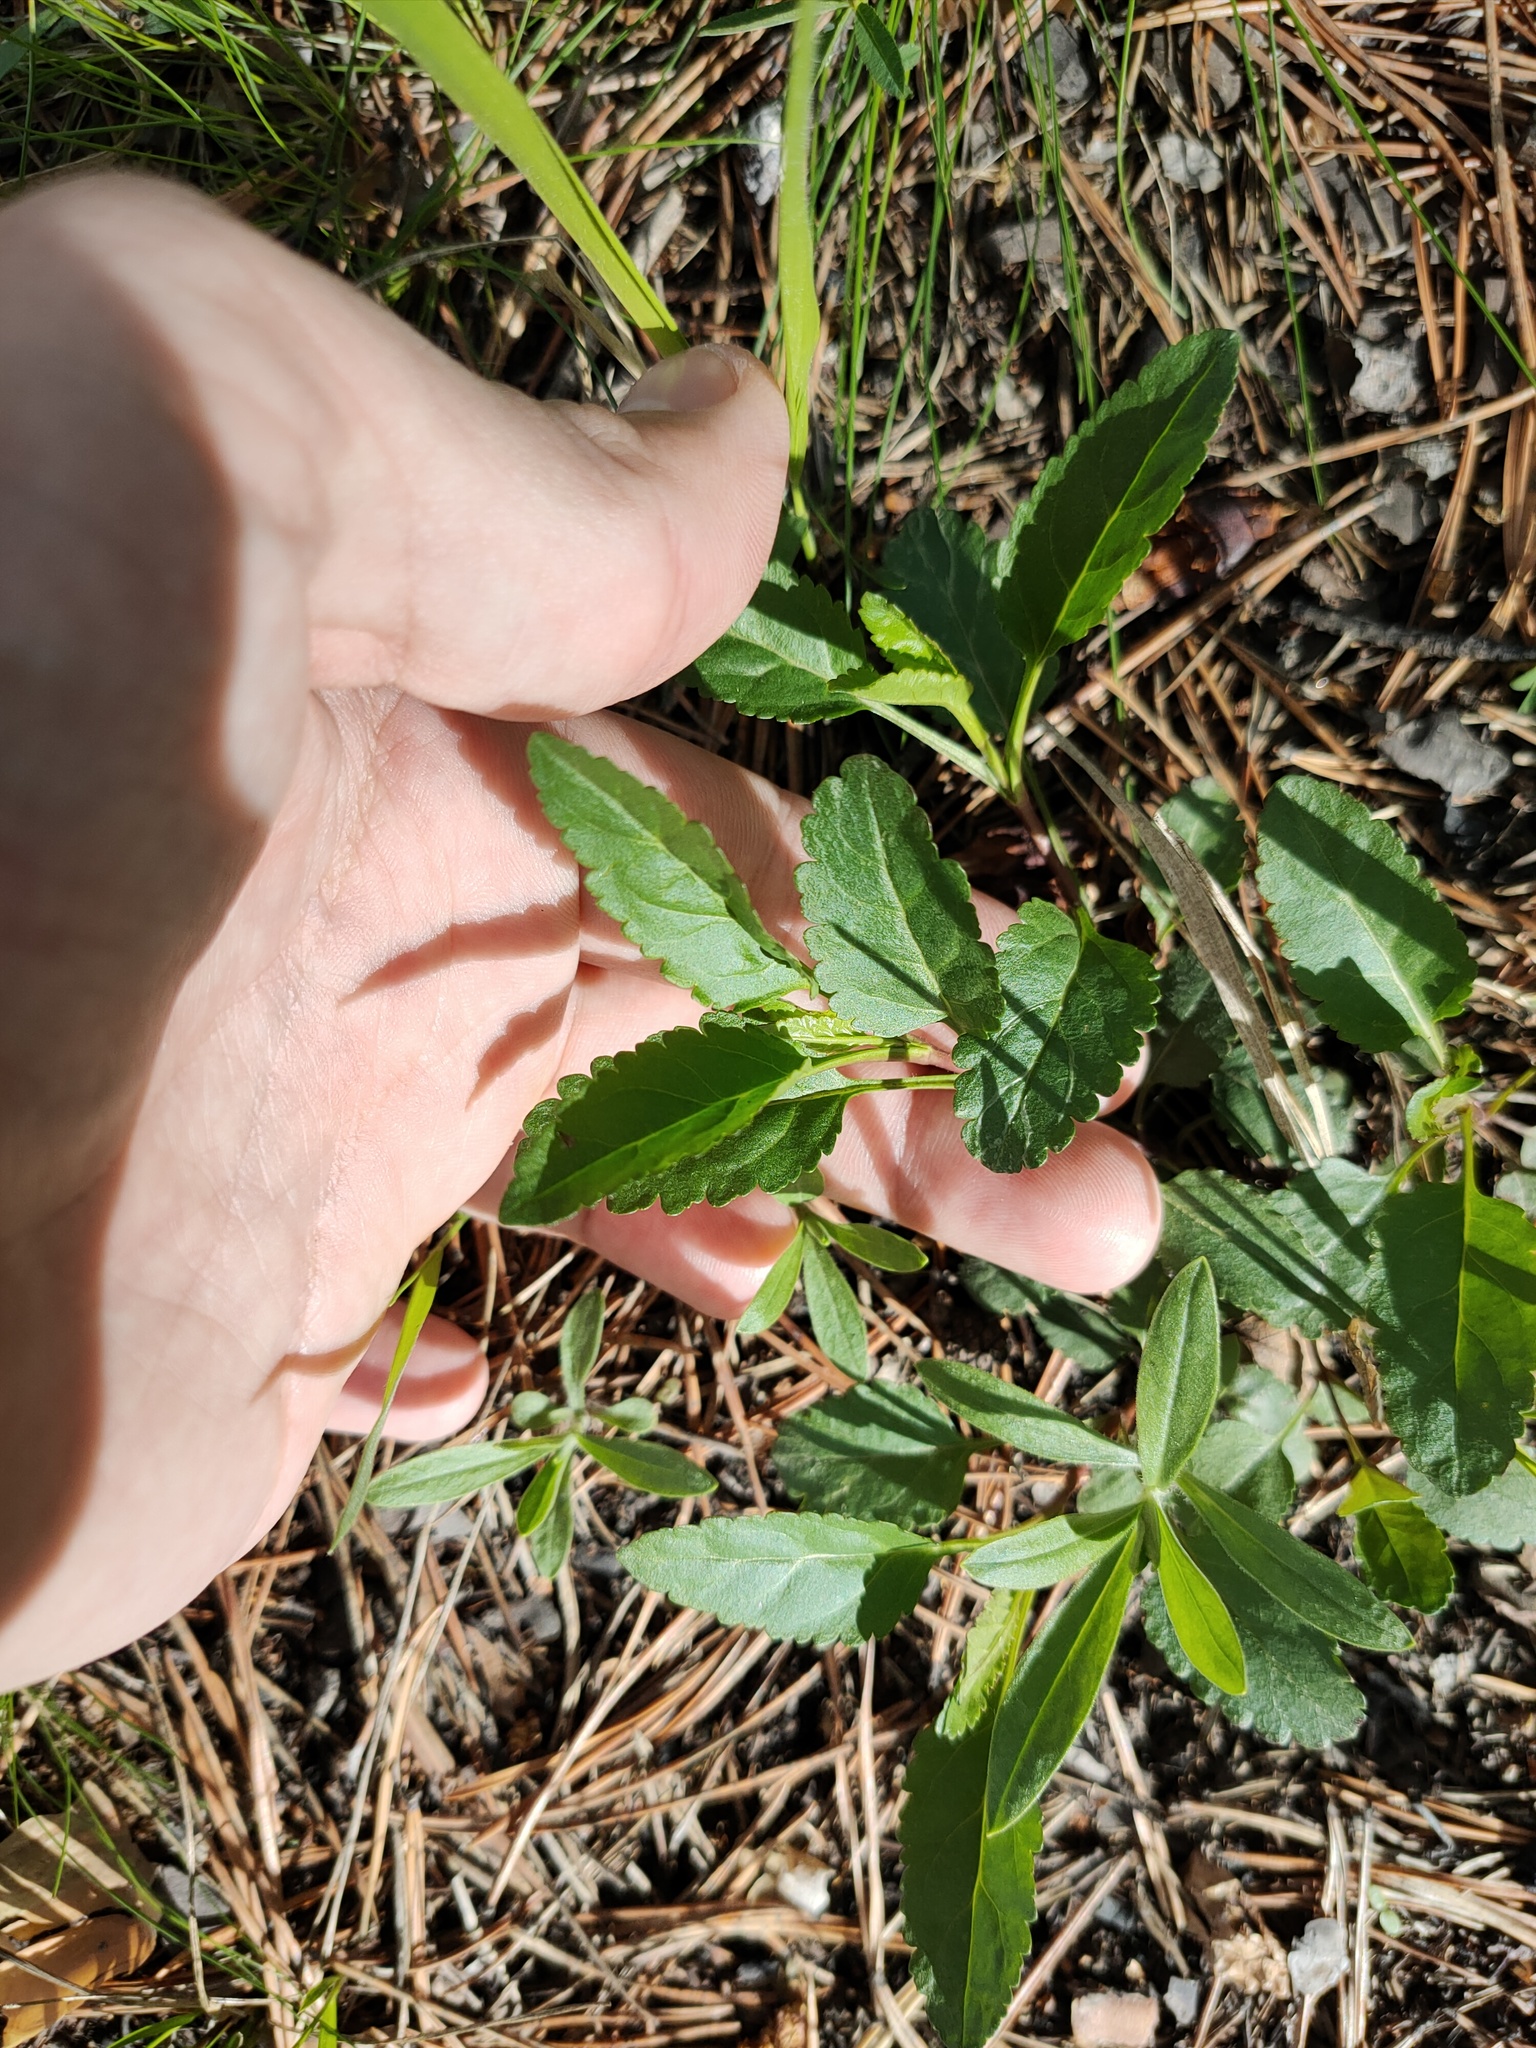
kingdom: Plantae
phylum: Tracheophyta
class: Magnoliopsida
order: Lamiales
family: Plantaginaceae
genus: Veronica
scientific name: Veronica spicata
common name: Spiked speedwell
